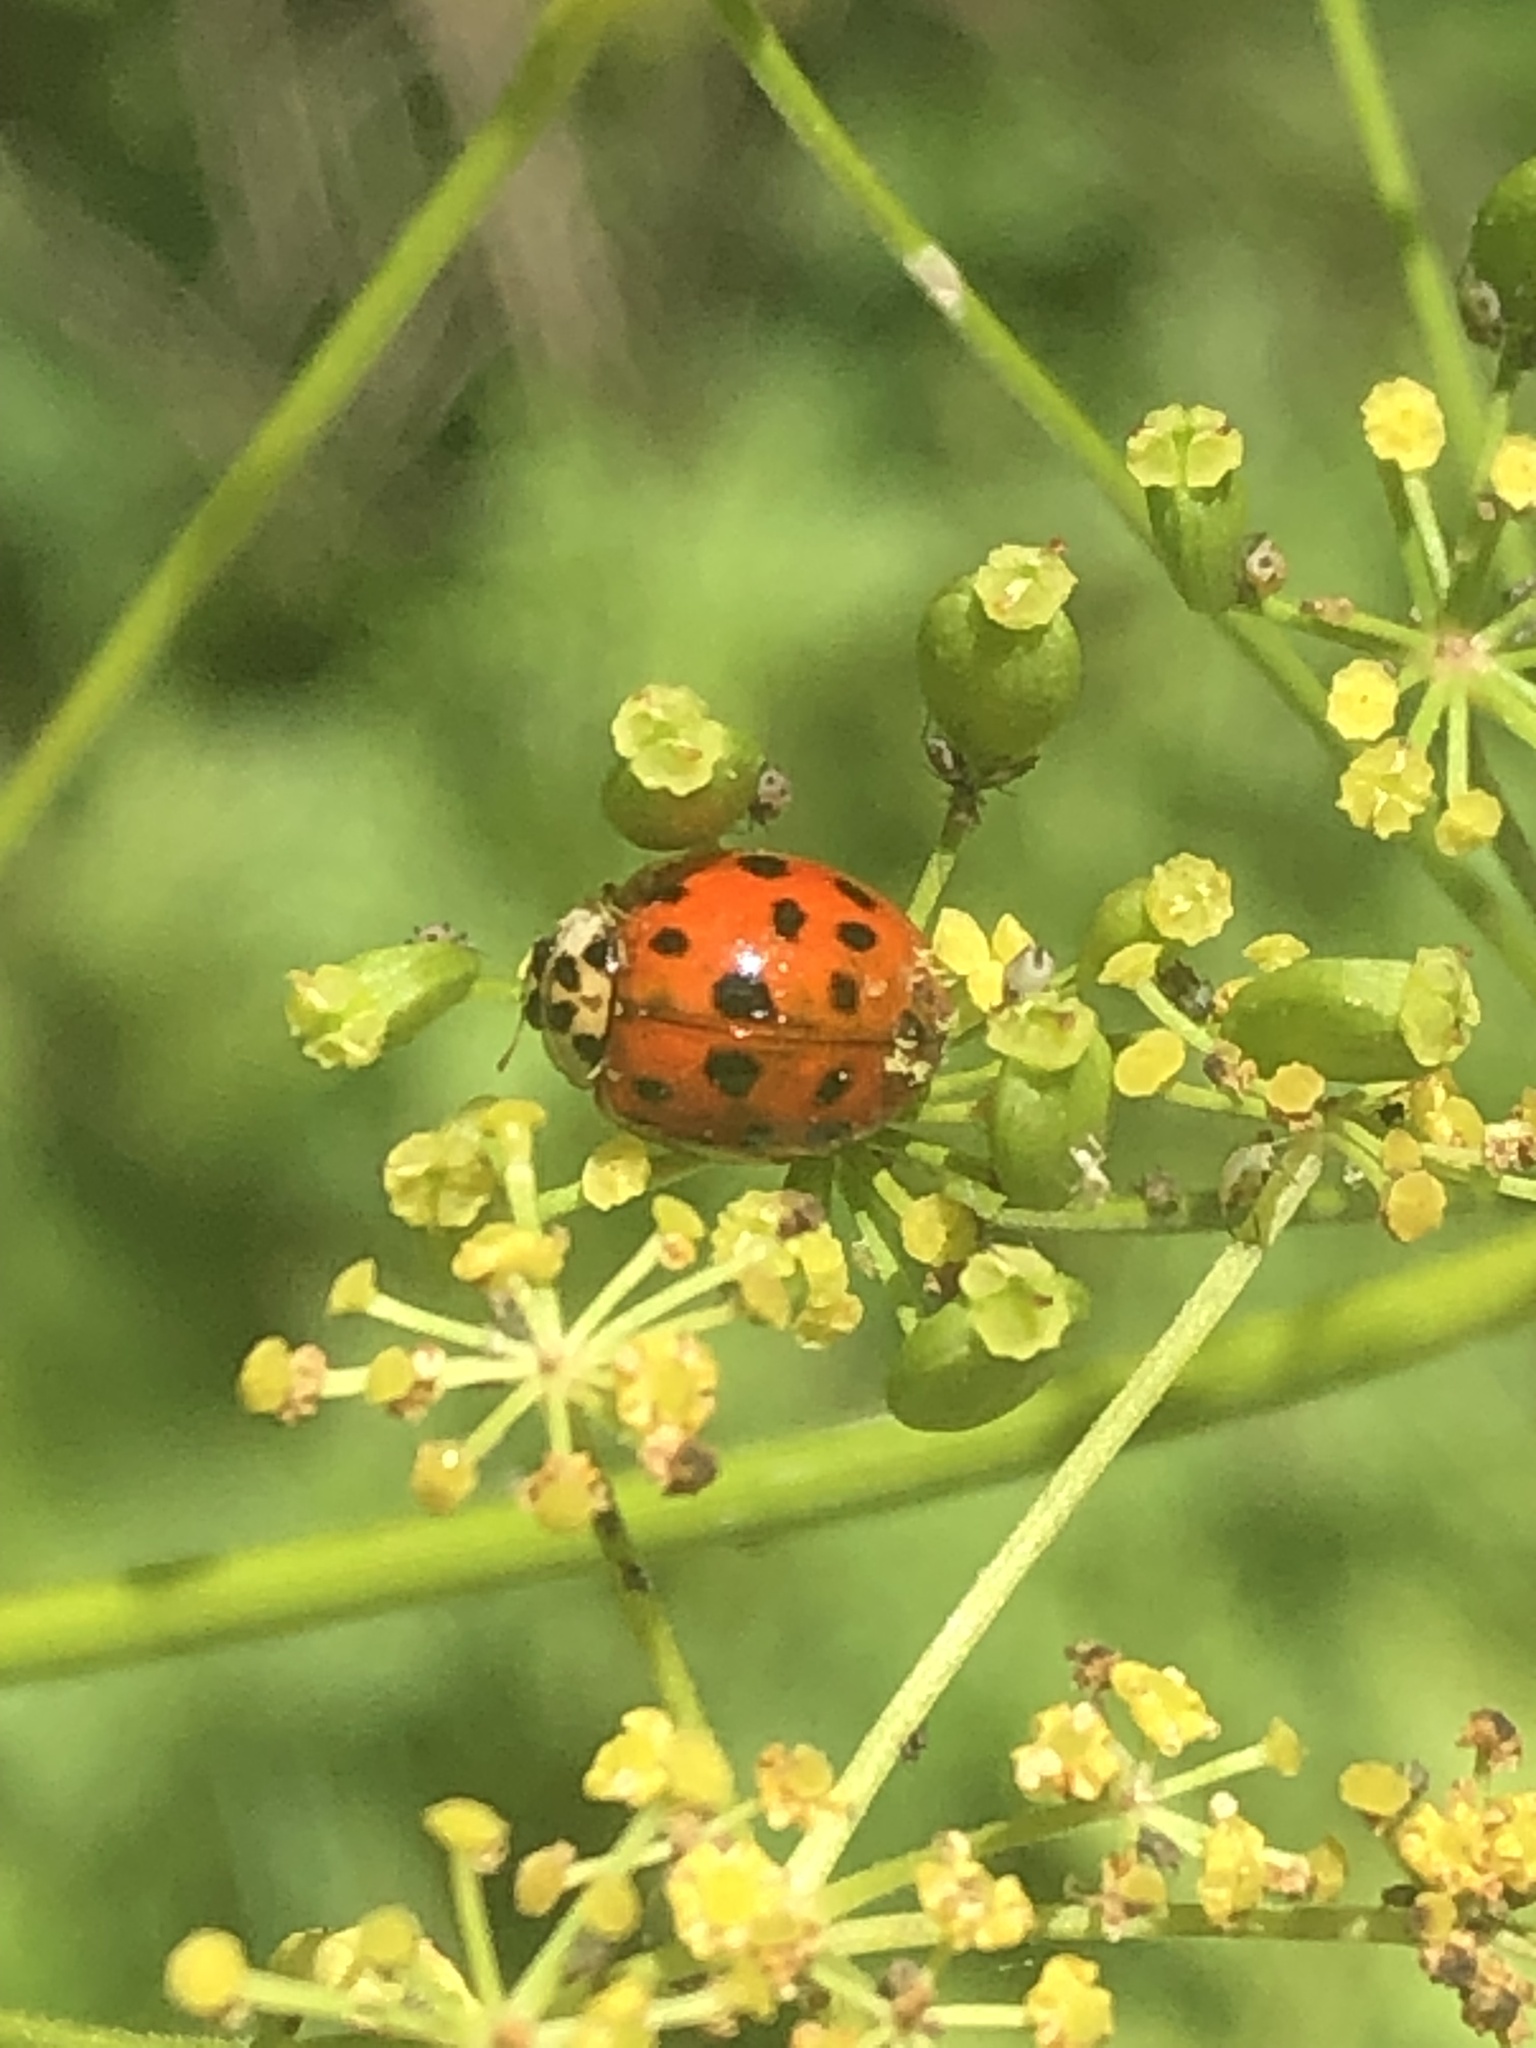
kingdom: Animalia
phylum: Arthropoda
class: Insecta
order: Coleoptera
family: Coccinellidae
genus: Harmonia
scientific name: Harmonia axyridis
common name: Harlequin ladybird
